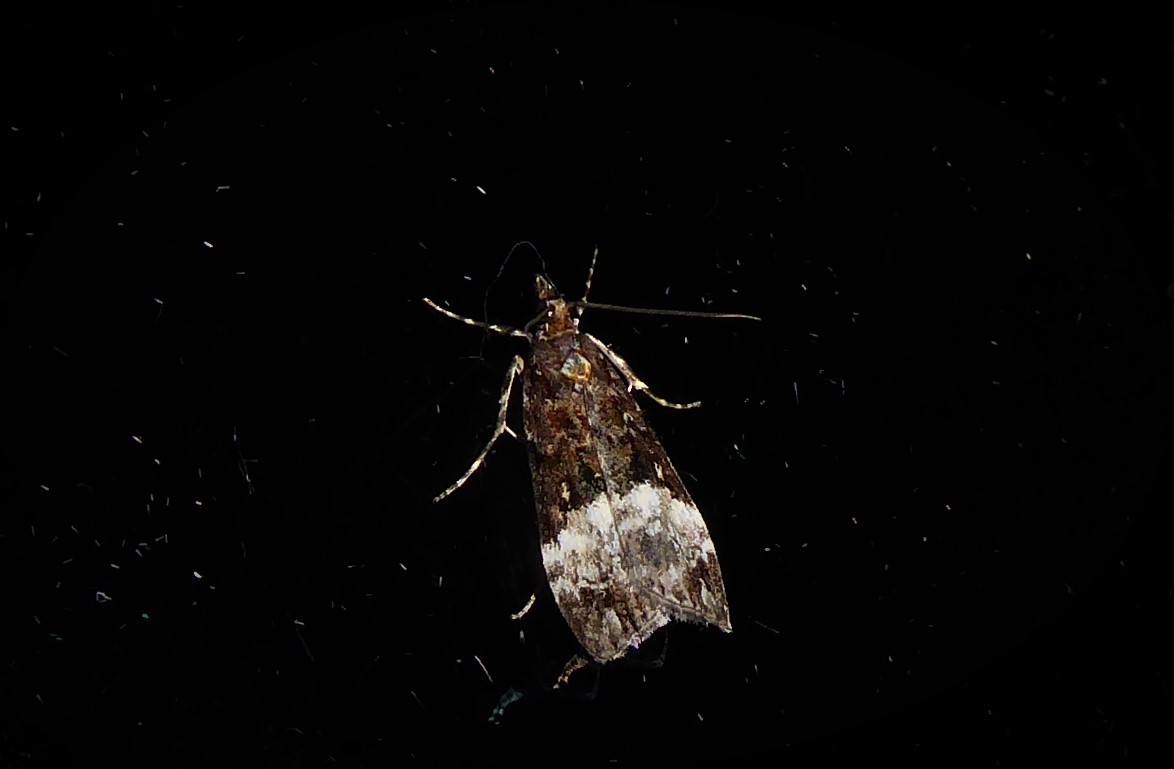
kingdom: Animalia
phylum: Arthropoda
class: Insecta
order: Lepidoptera
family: Crambidae
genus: Scoparia
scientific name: Scoparia minusculalis
